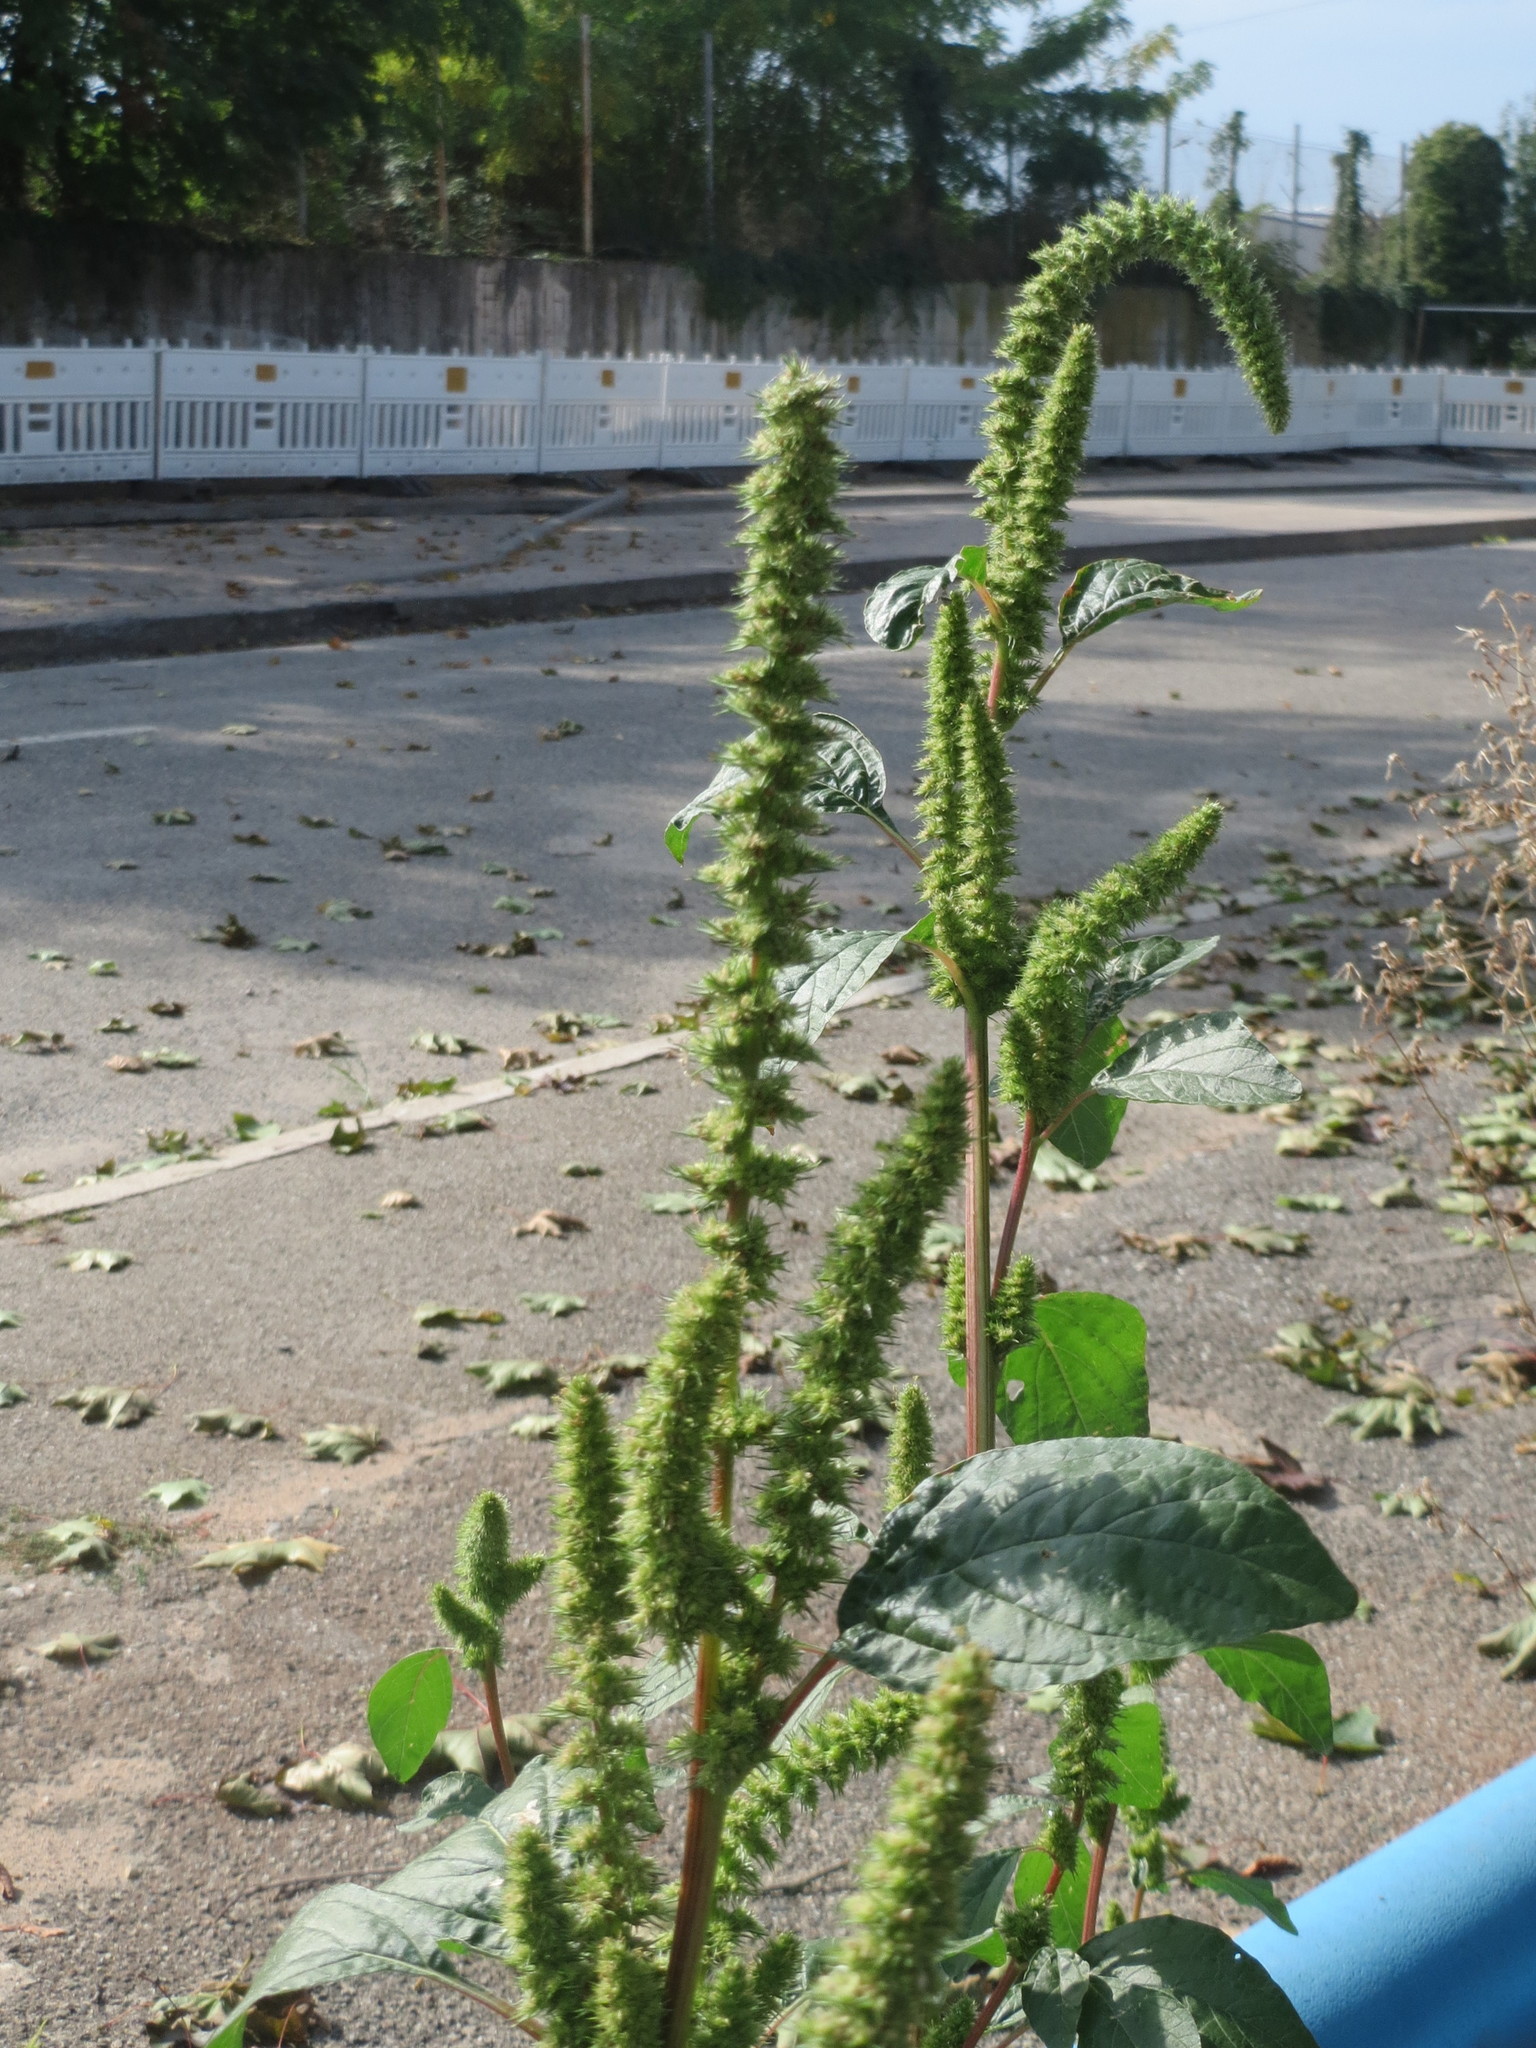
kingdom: Plantae
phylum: Tracheophyta
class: Magnoliopsida
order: Caryophyllales
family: Amaranthaceae
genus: Amaranthus
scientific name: Amaranthus powellii
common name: Powell's amaranth
